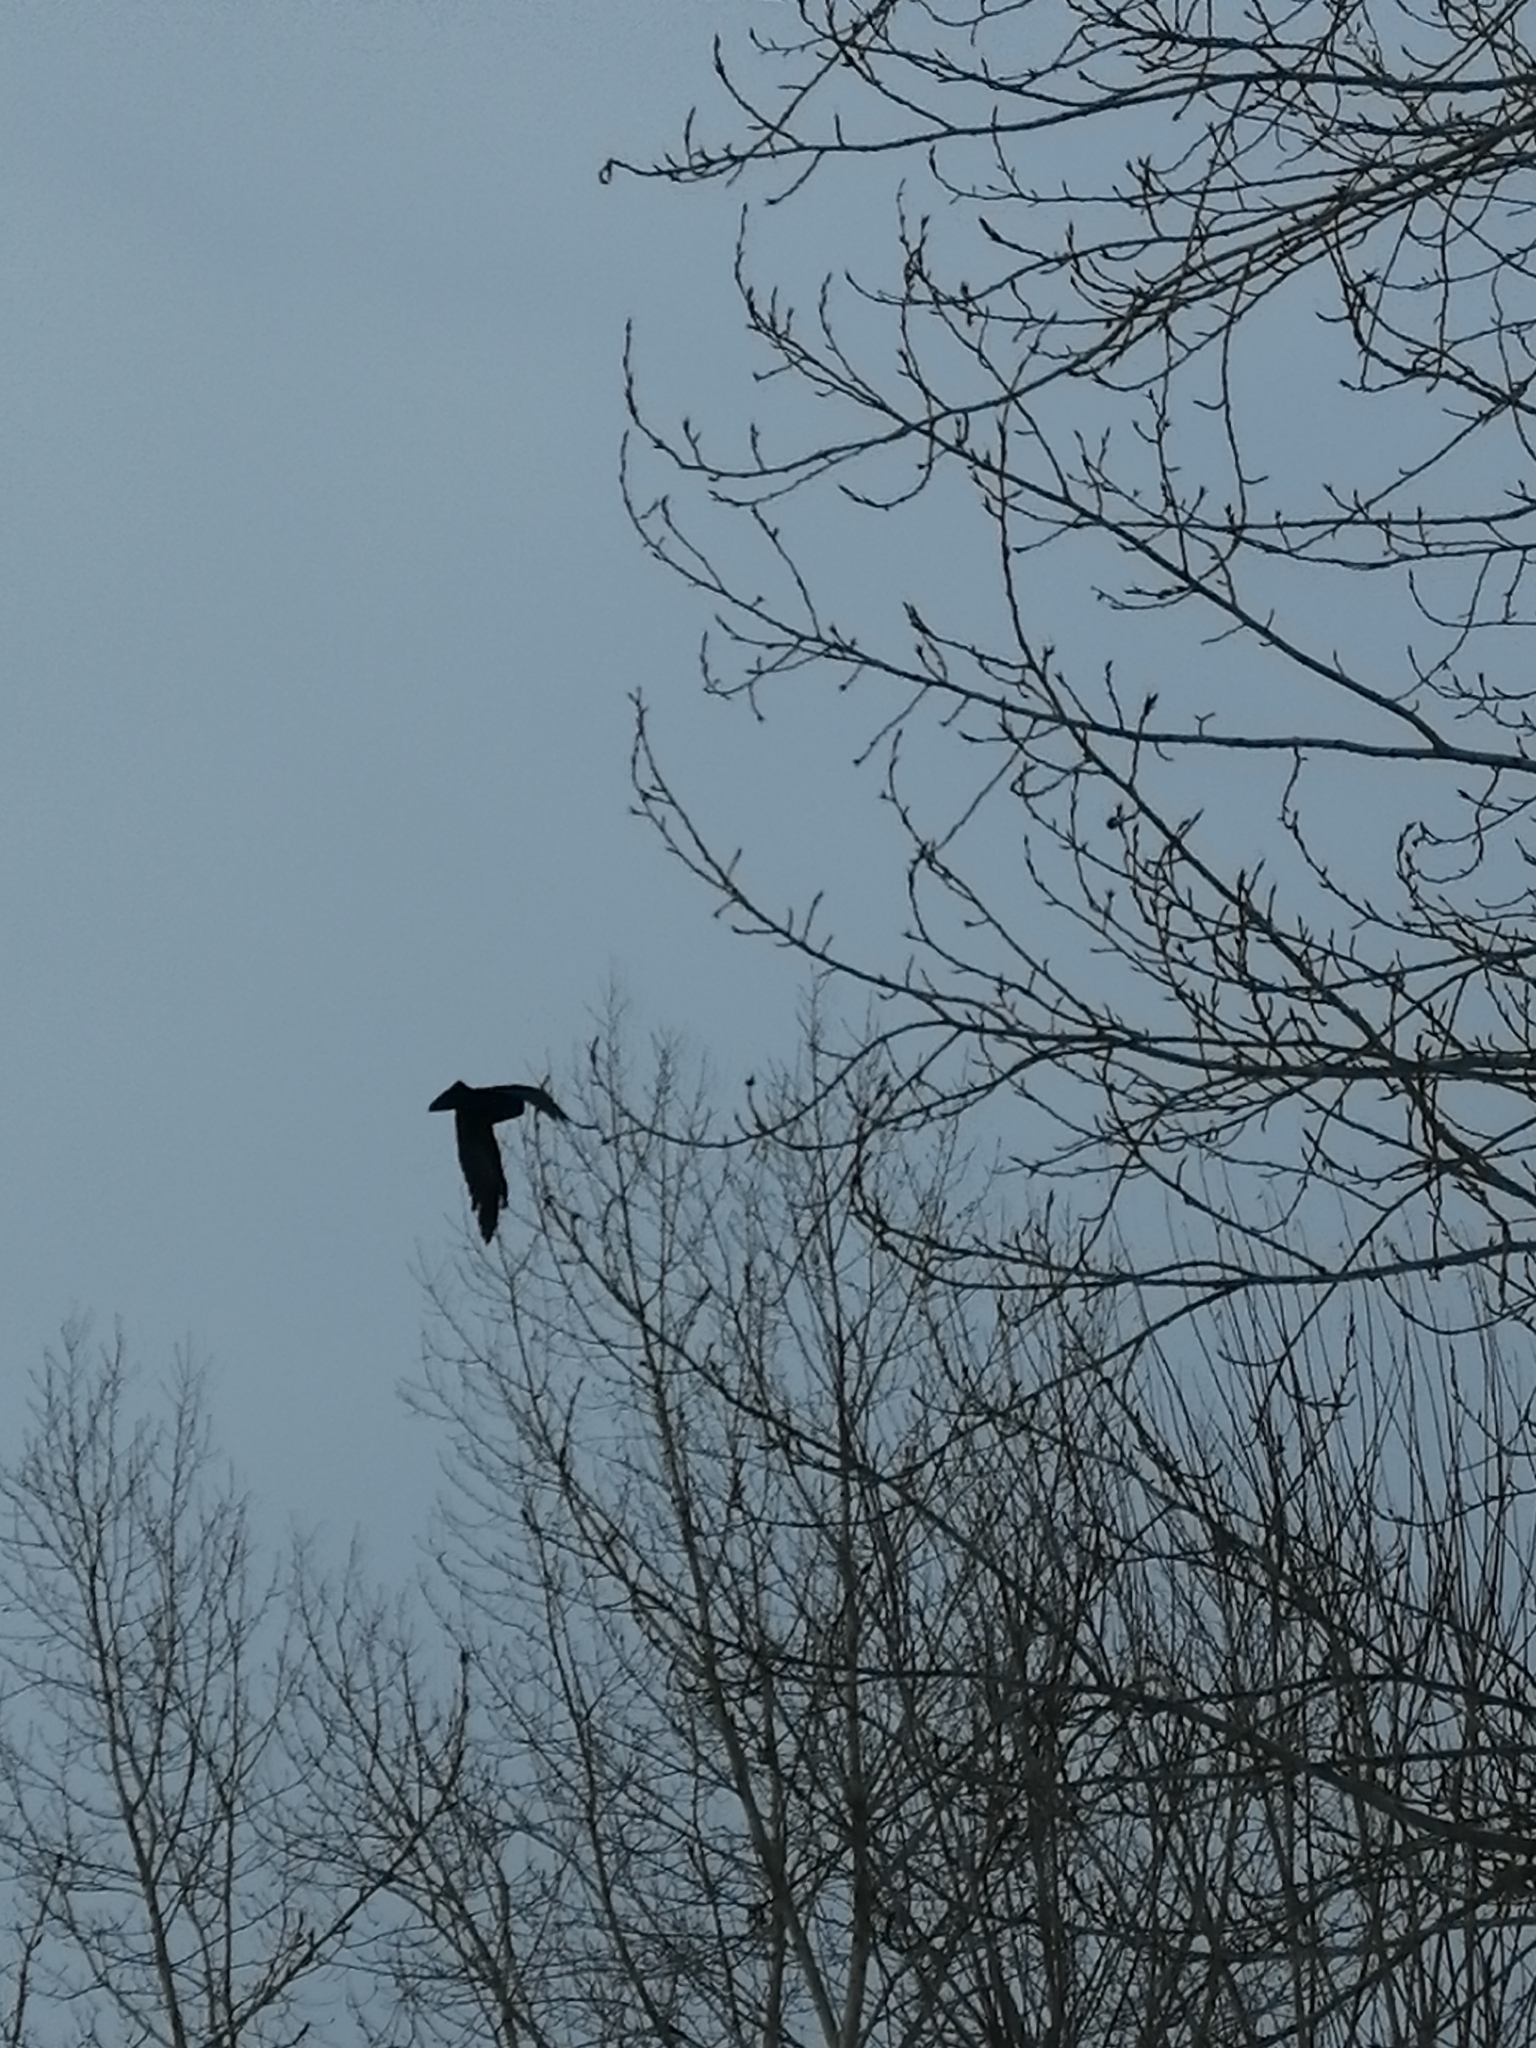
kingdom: Animalia
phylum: Chordata
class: Aves
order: Passeriformes
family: Corvidae
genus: Corvus
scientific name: Corvus corone
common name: Carrion crow
